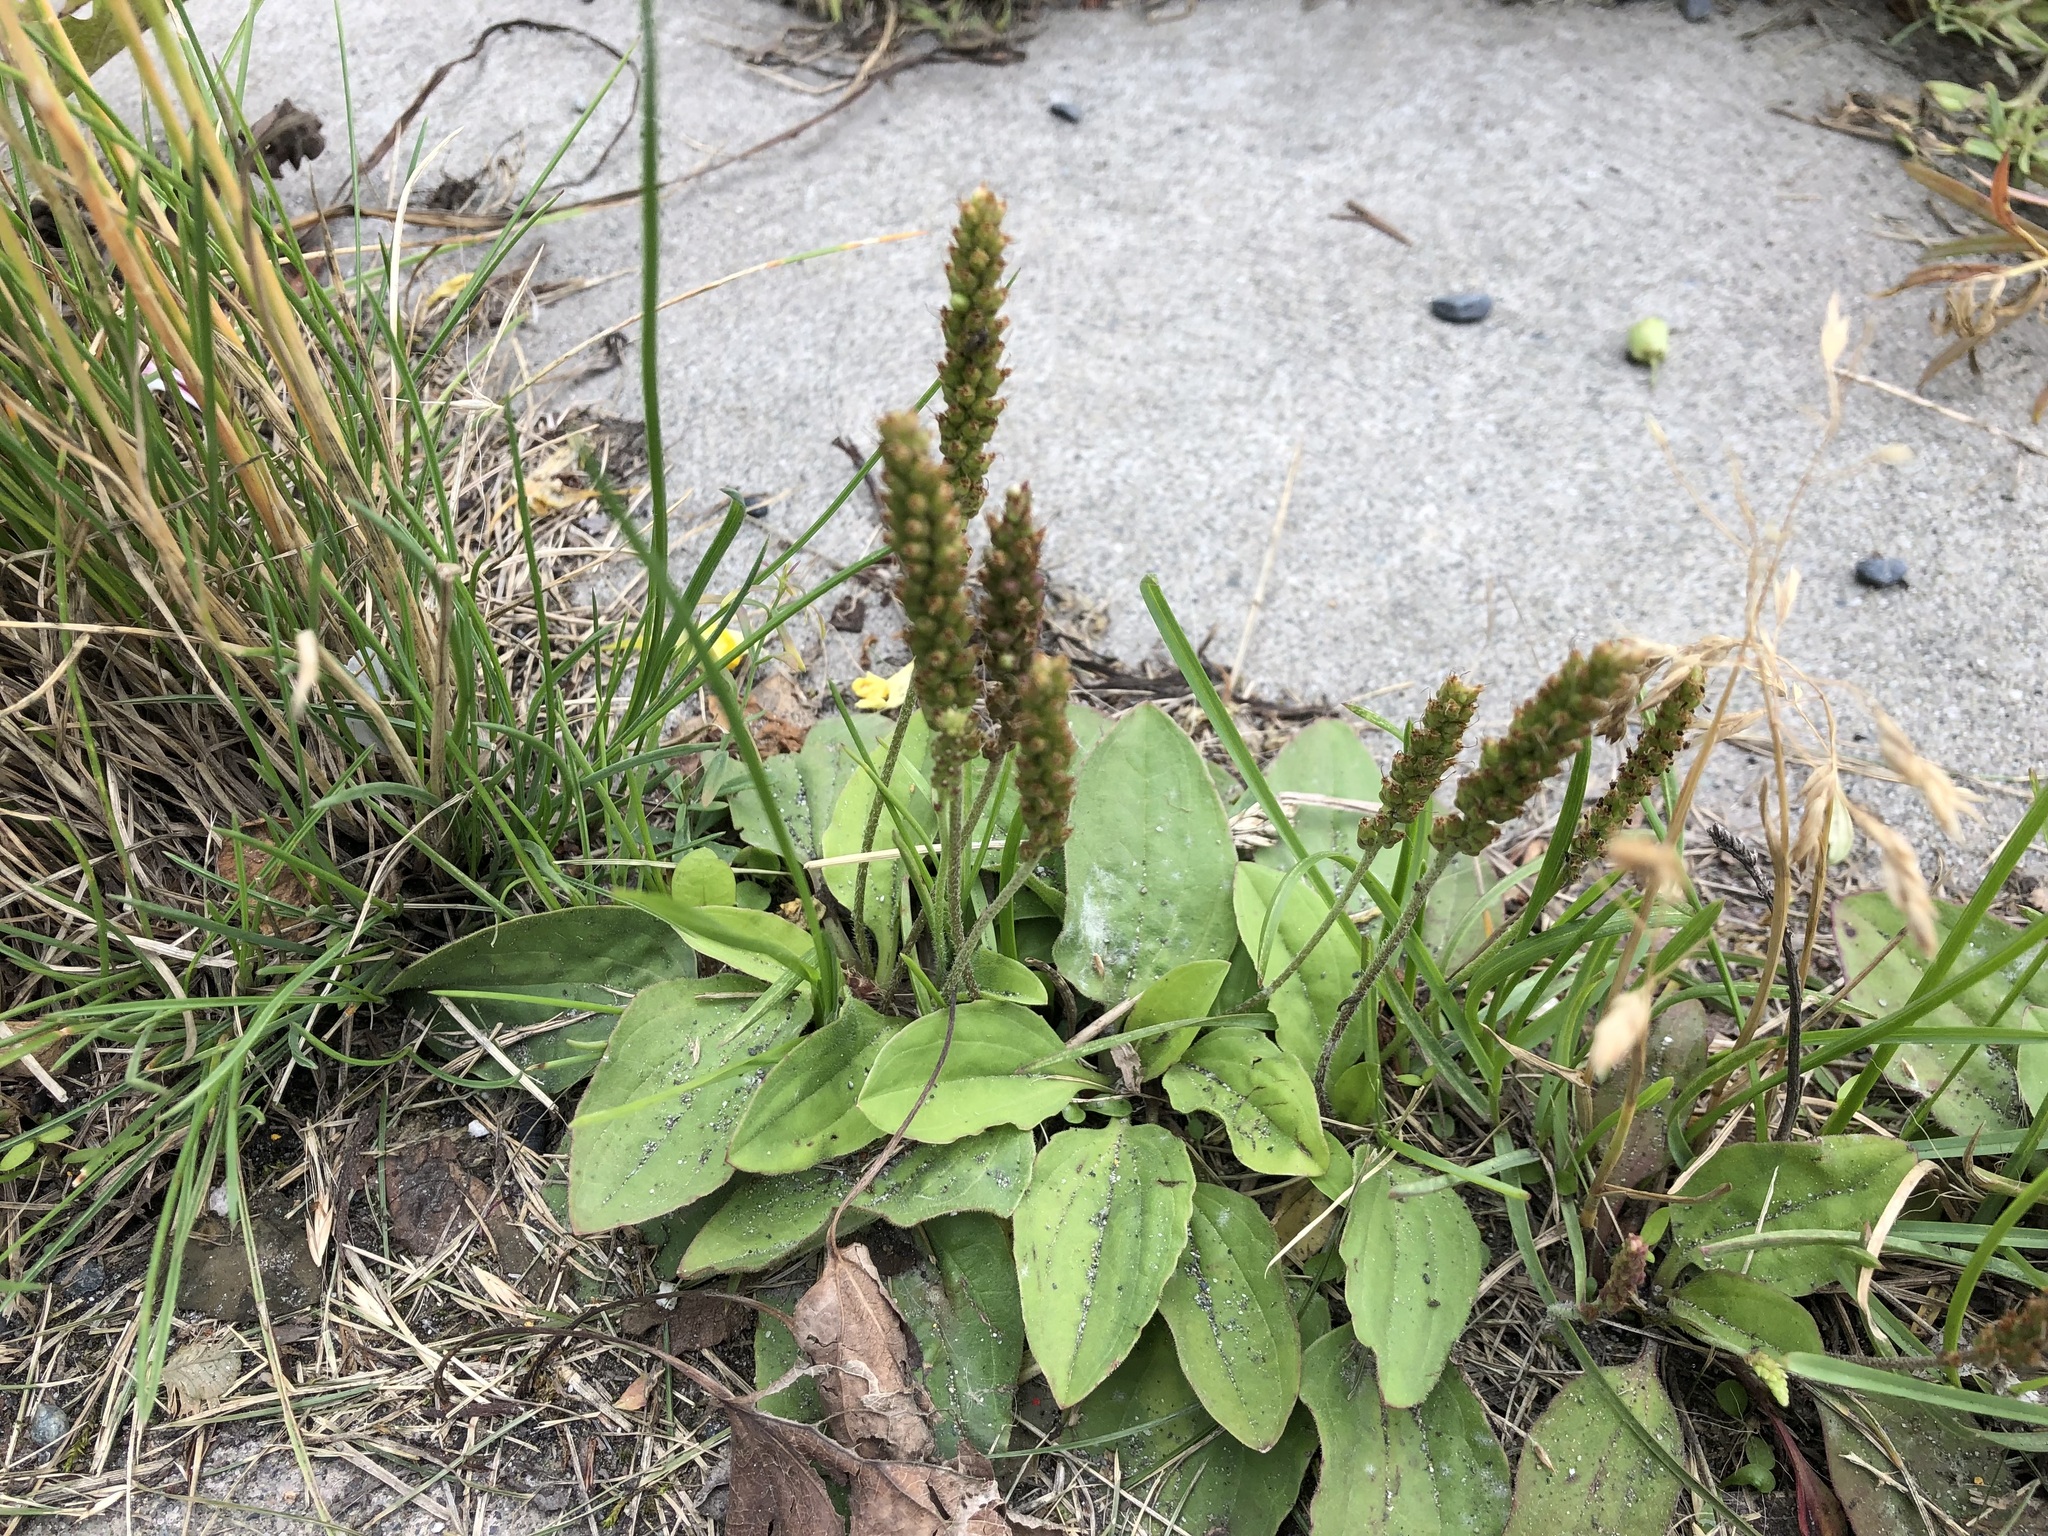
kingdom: Plantae
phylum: Tracheophyta
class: Magnoliopsida
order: Lamiales
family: Plantaginaceae
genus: Plantago
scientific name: Plantago major
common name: Common plantain
